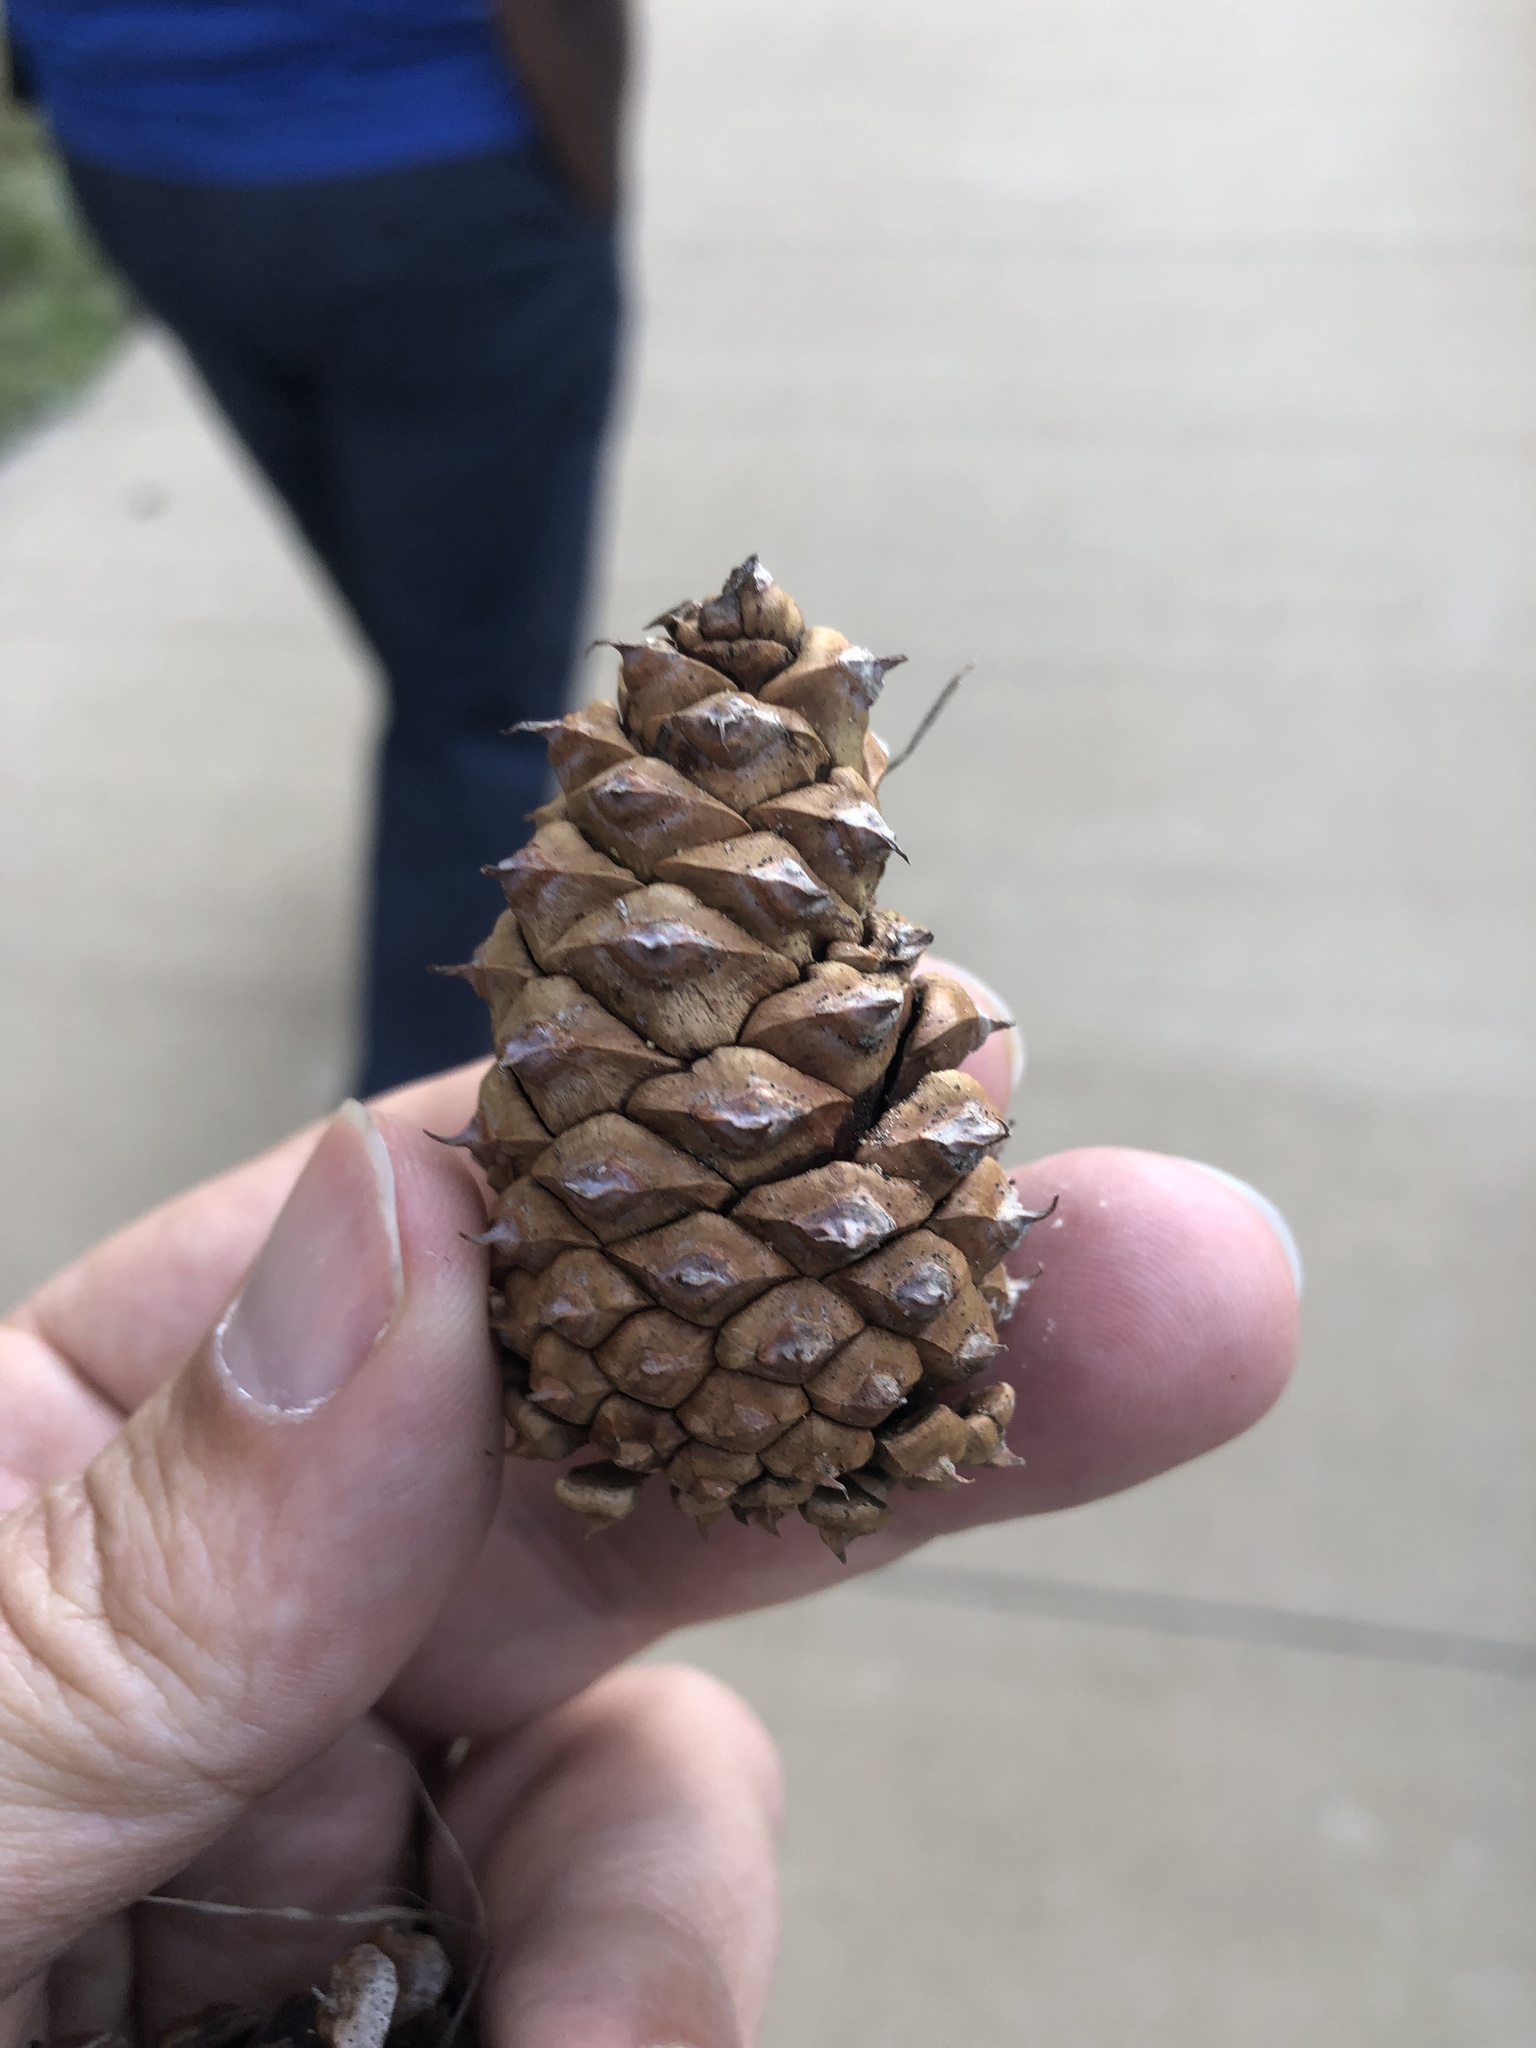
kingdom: Plantae
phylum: Tracheophyta
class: Pinopsida
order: Pinales
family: Pinaceae
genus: Pinus
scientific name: Pinus ponderosa
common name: Western yellow-pine
